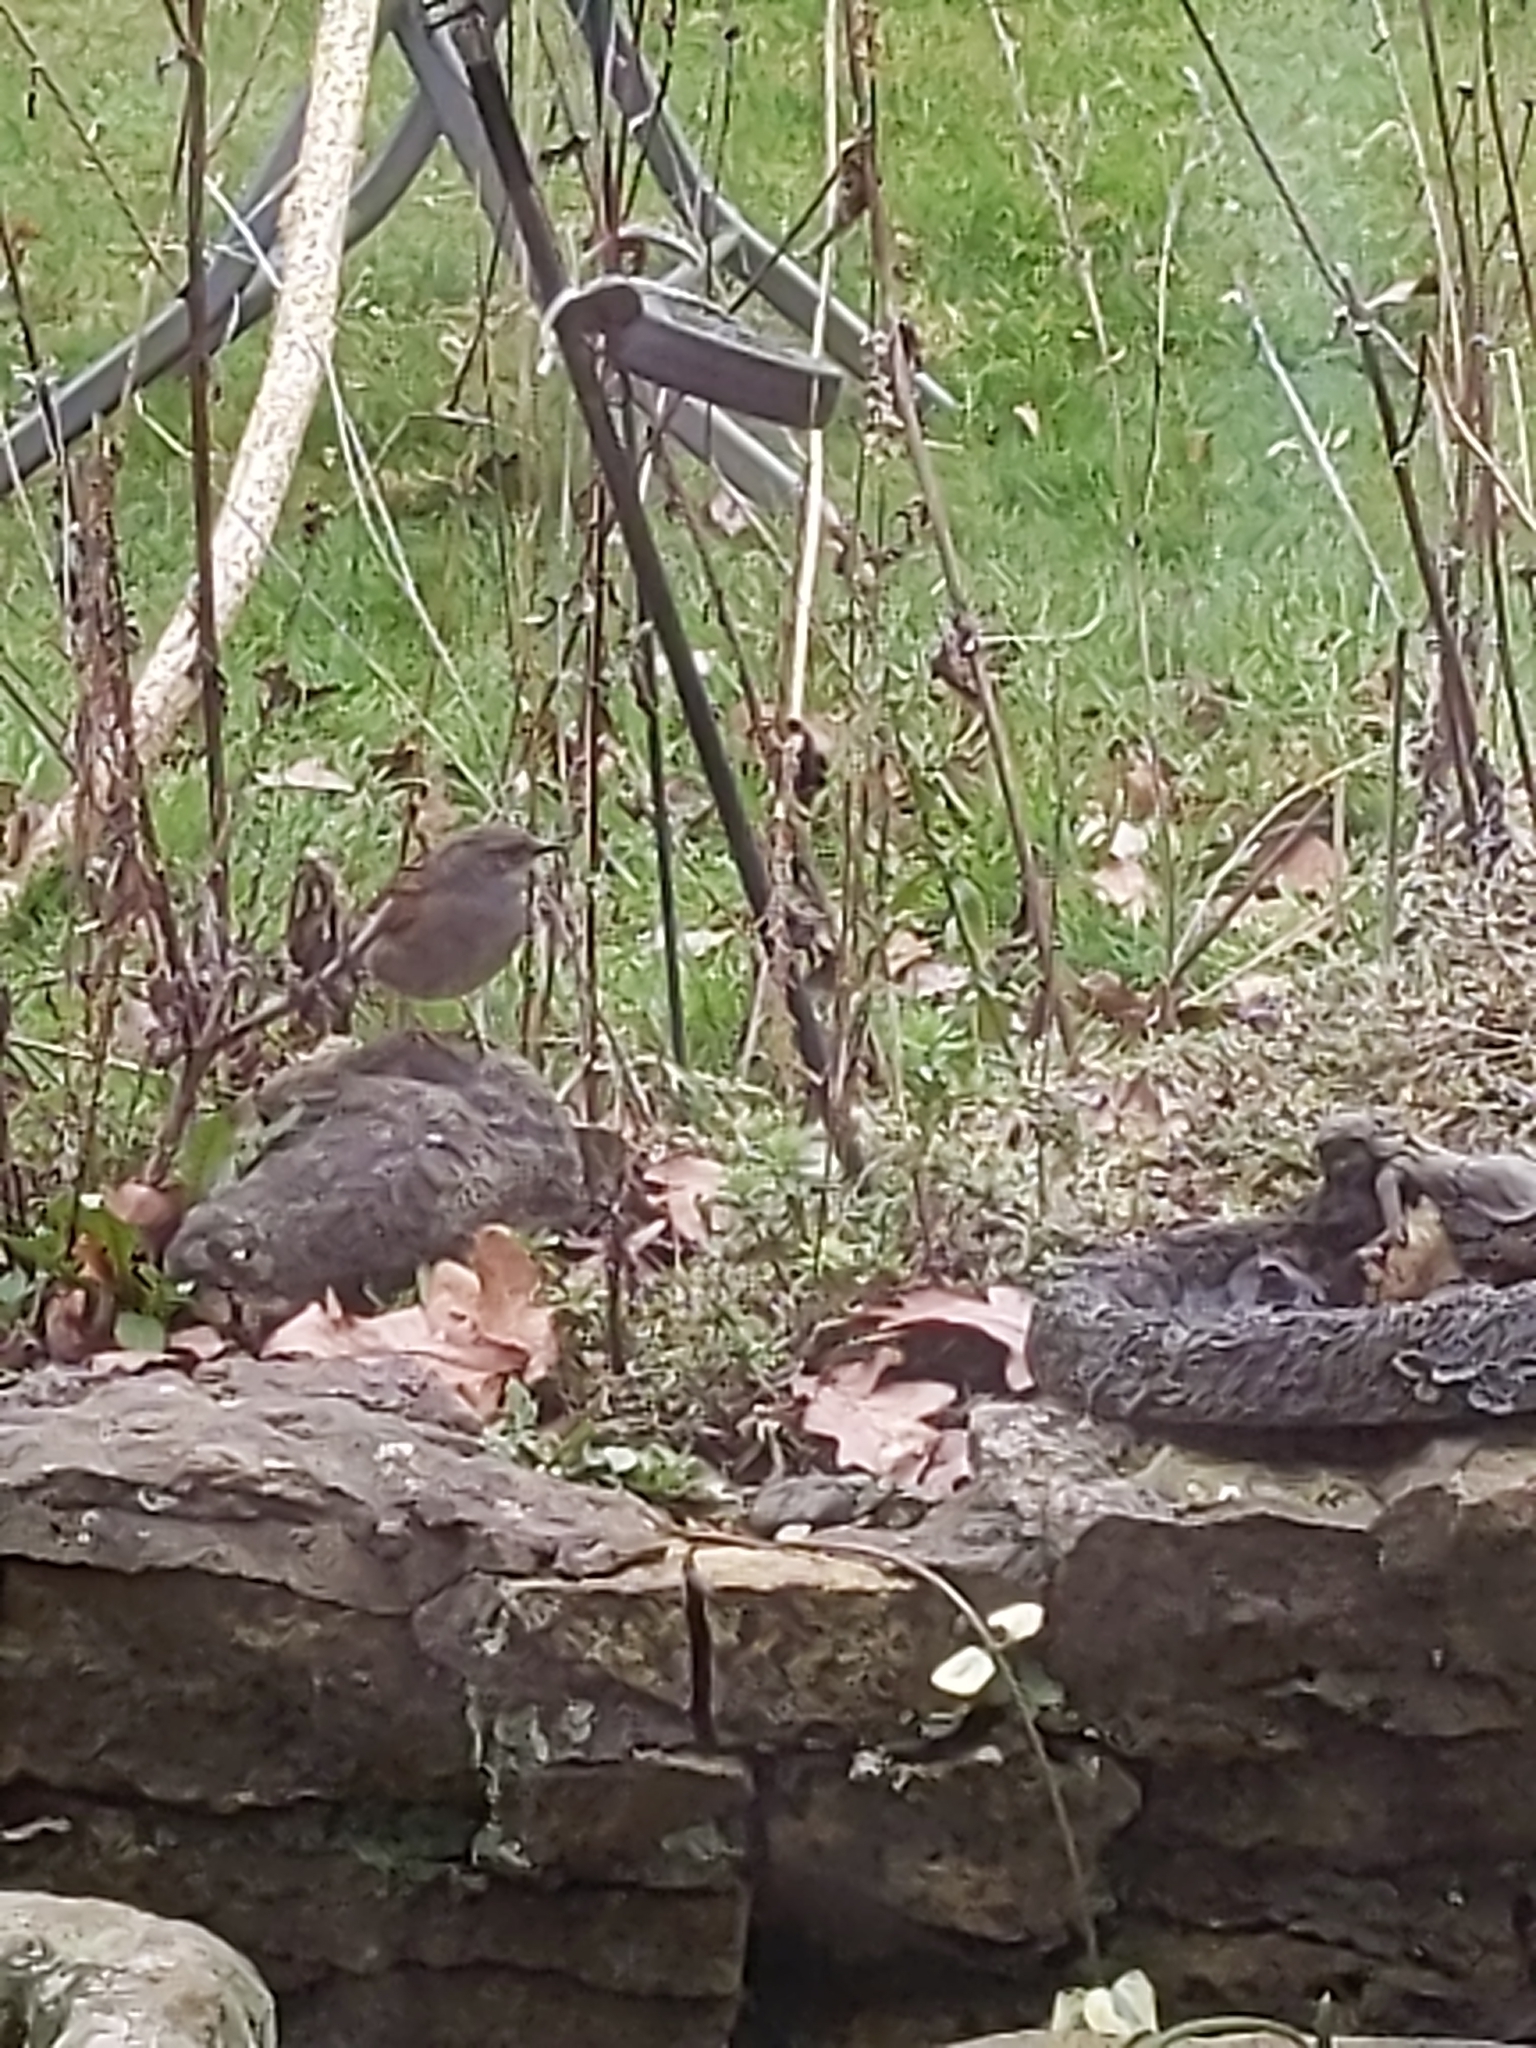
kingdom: Animalia
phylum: Chordata
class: Aves
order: Passeriformes
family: Prunellidae
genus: Prunella
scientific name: Prunella modularis
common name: Dunnock
